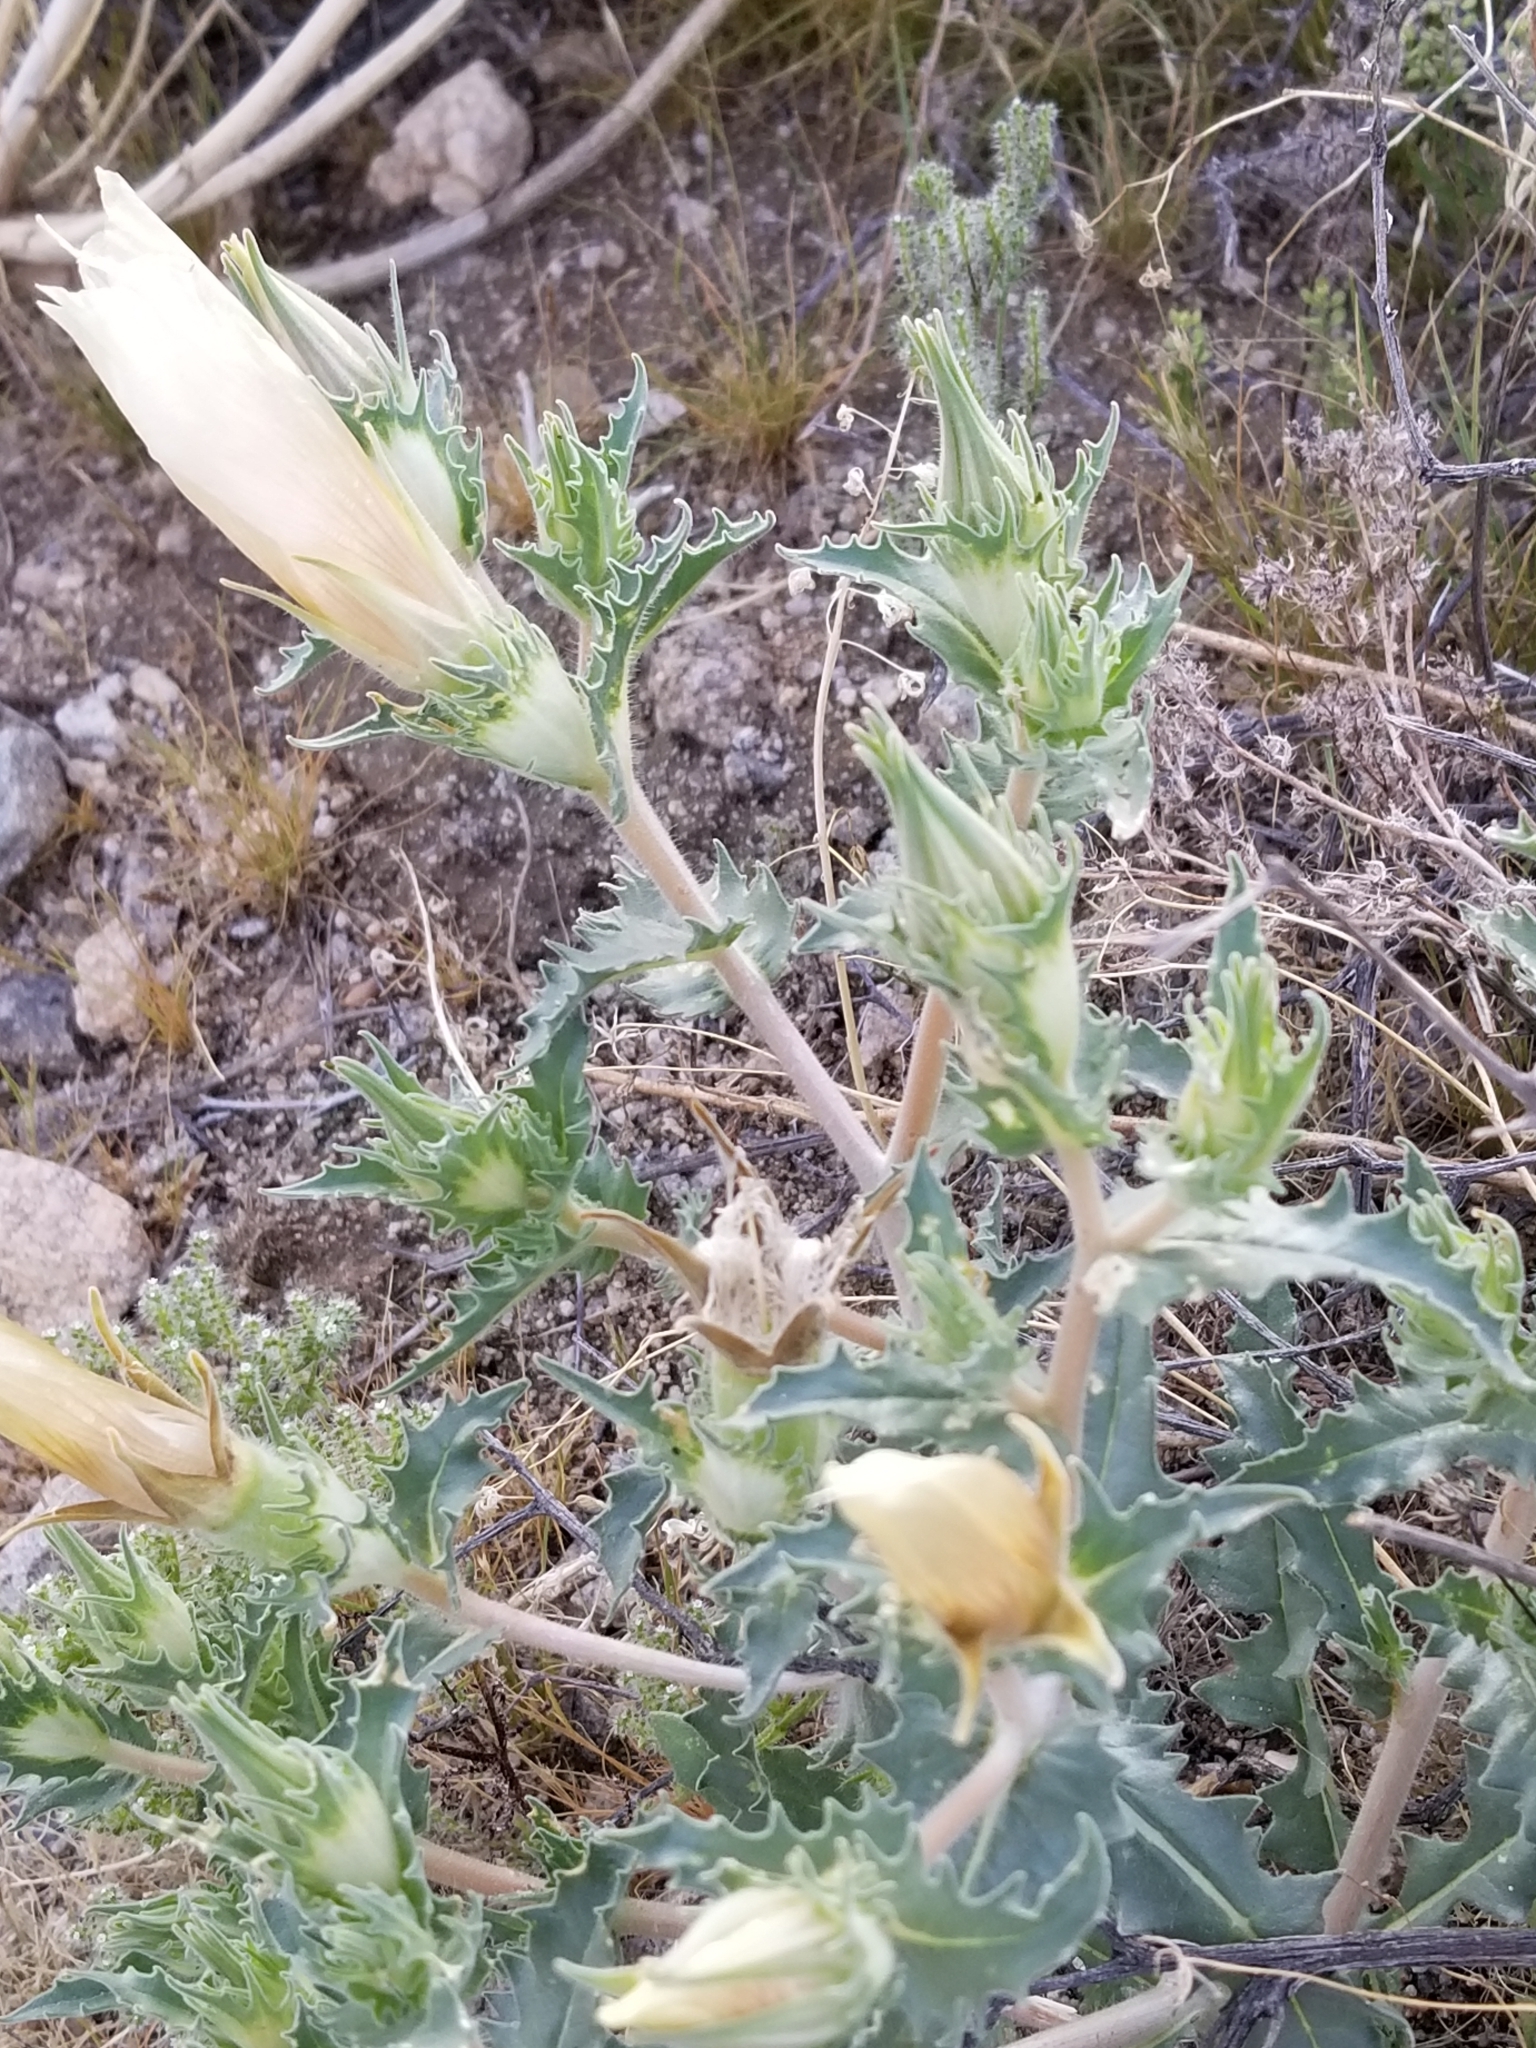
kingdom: Plantae
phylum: Tracheophyta
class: Magnoliopsida
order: Cornales
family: Loasaceae
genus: Mentzelia
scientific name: Mentzelia involucrata
